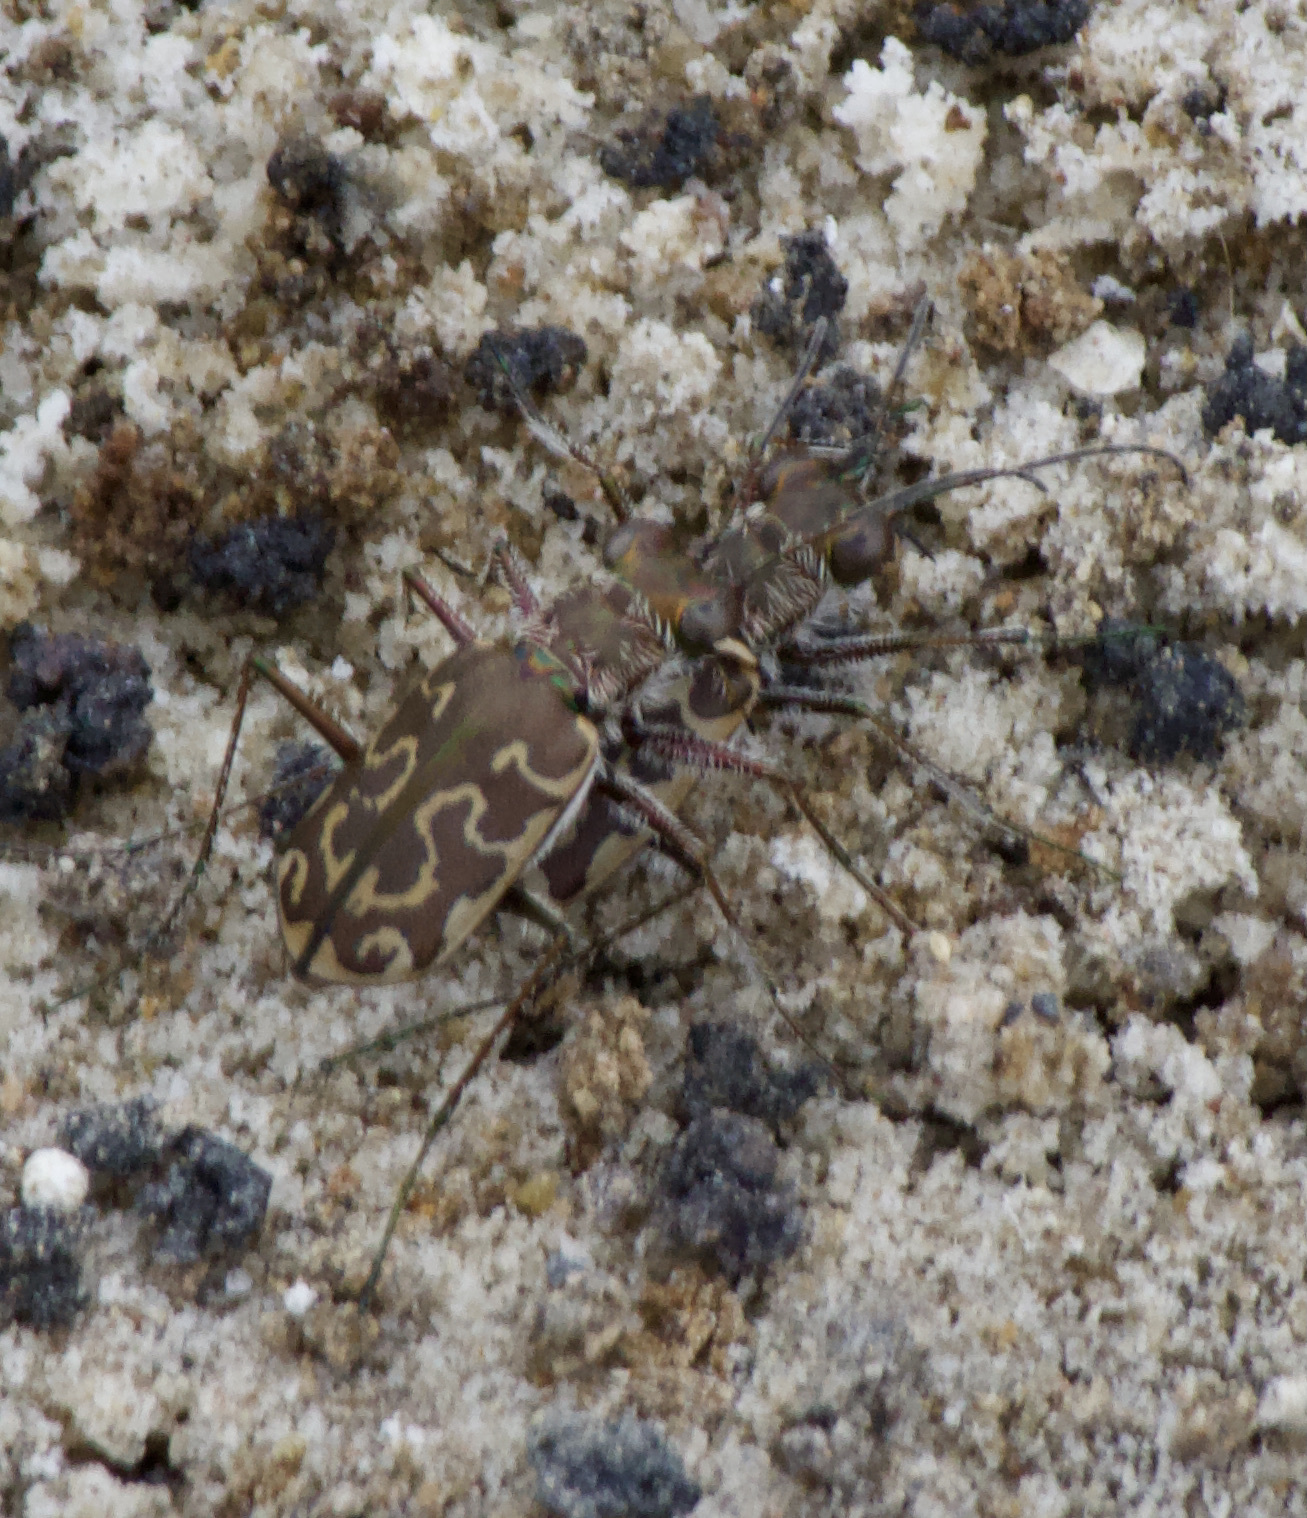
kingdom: Animalia
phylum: Arthropoda
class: Insecta
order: Coleoptera
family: Carabidae
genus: Cicindela
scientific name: Cicindela trifasciata
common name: Mudflat tiger beetle
